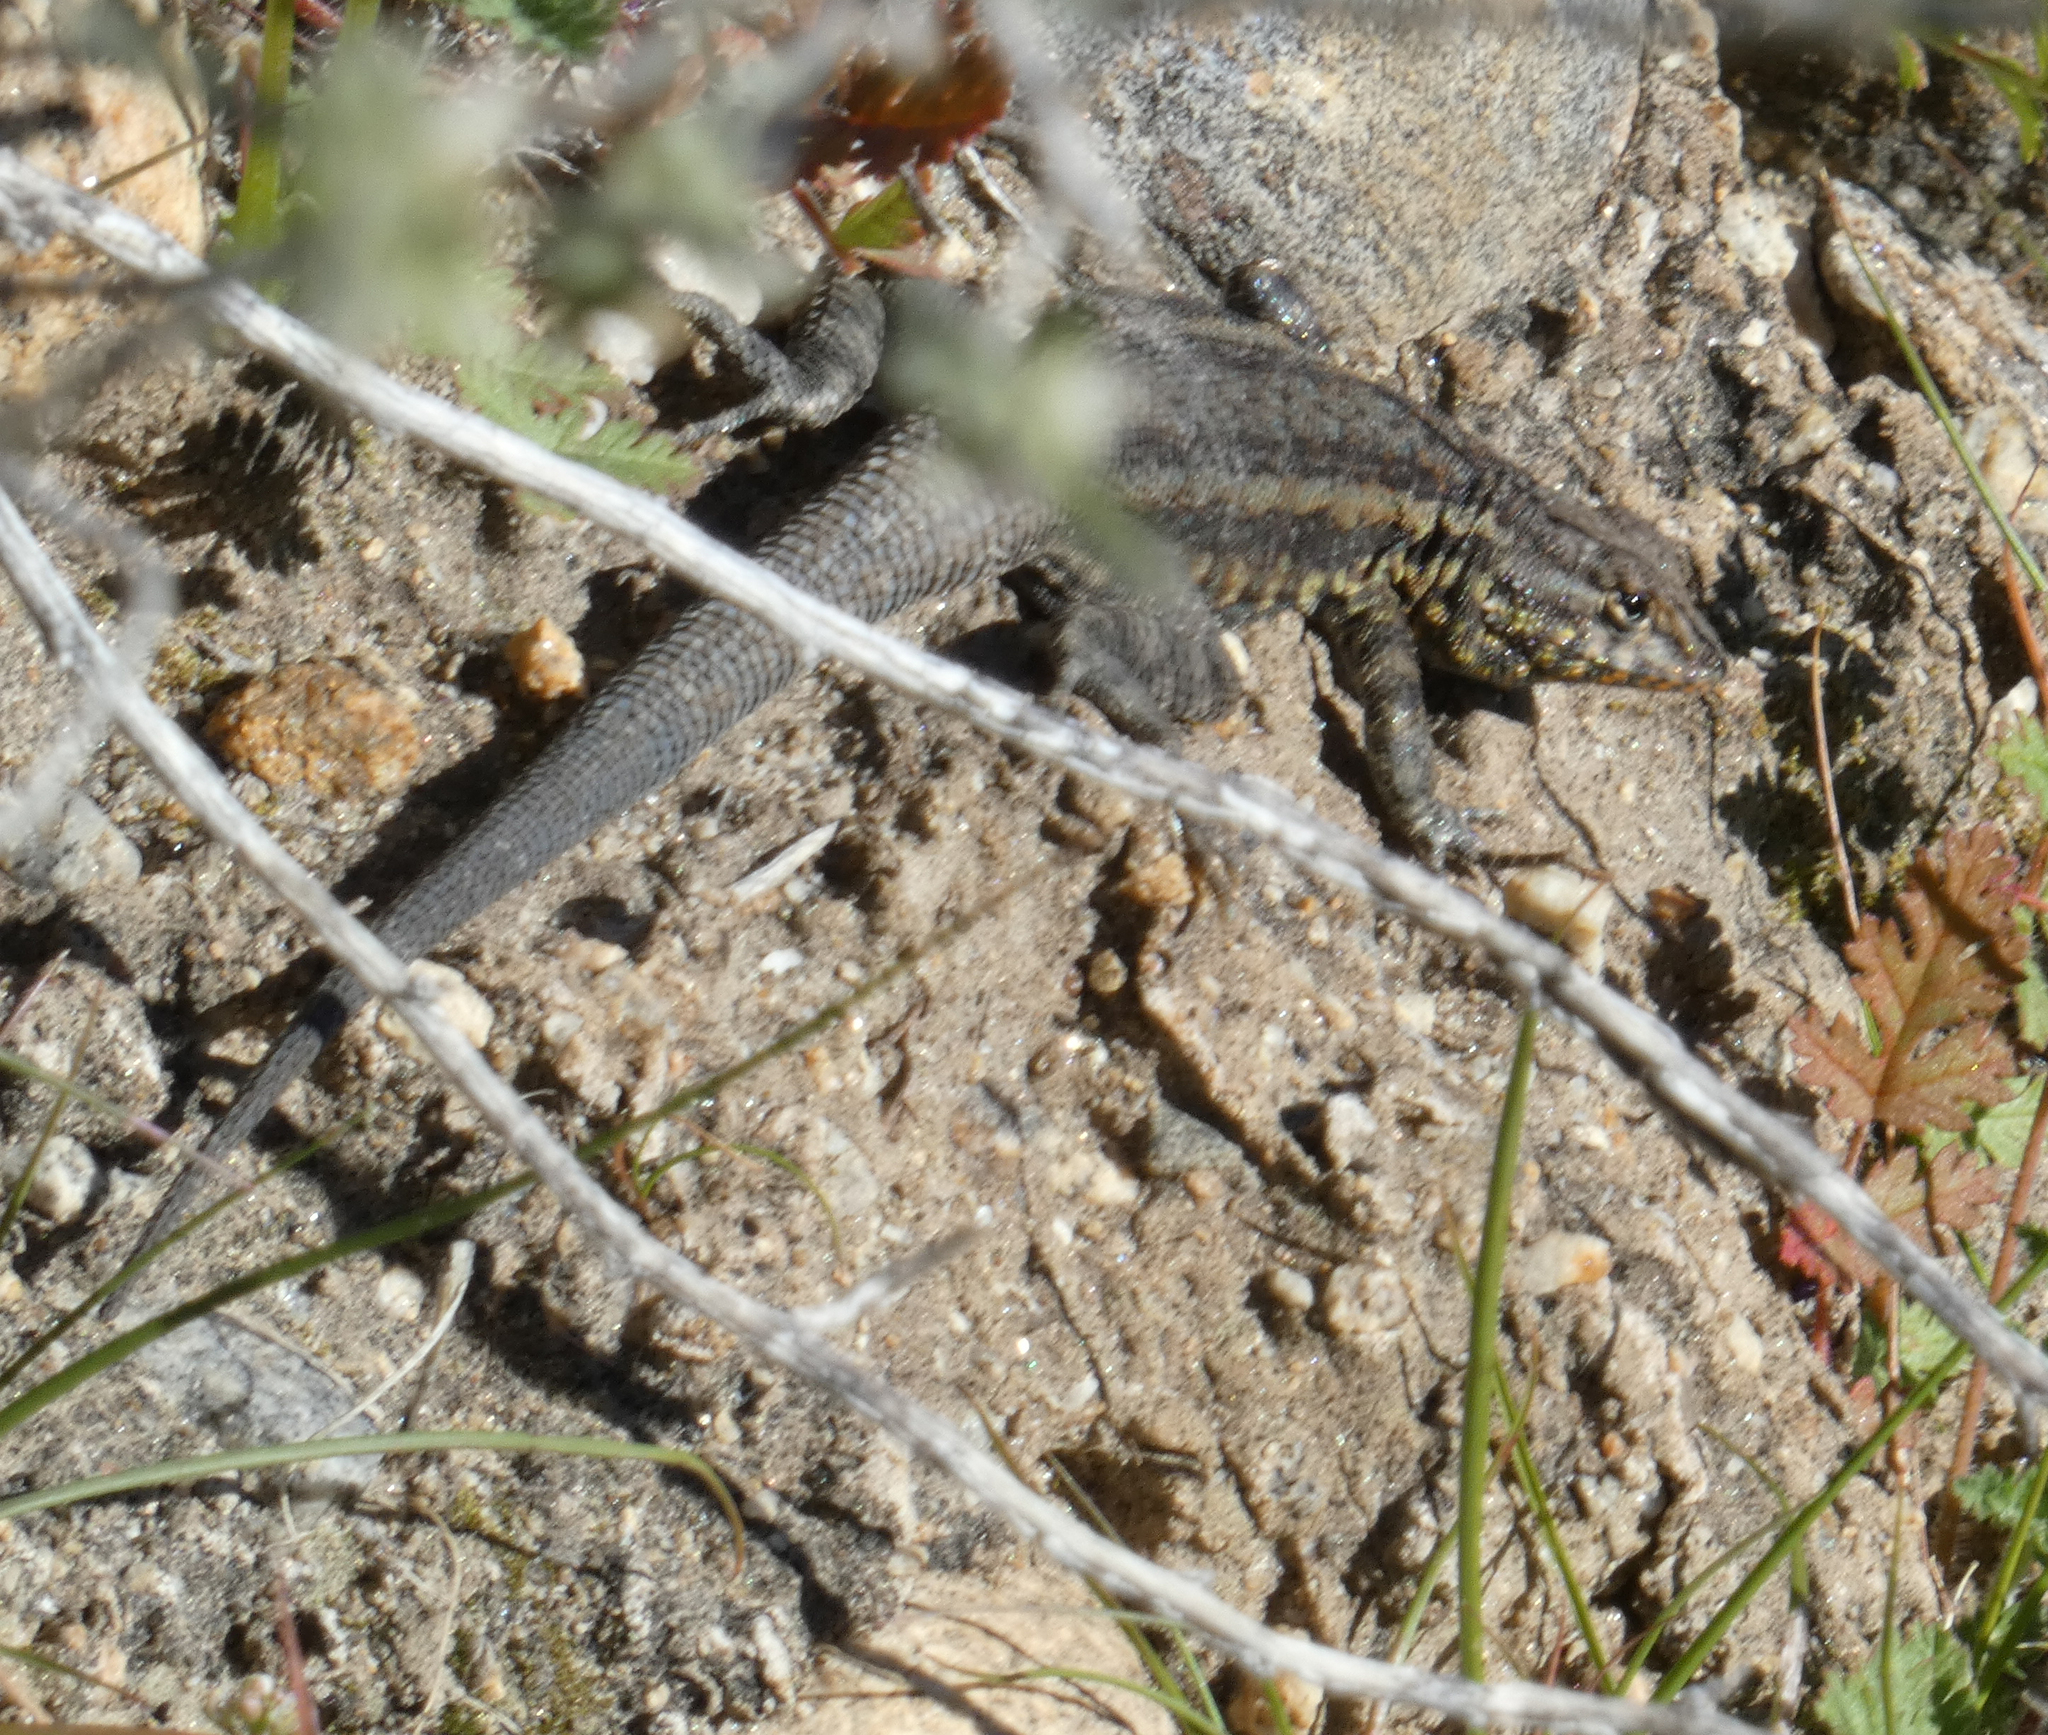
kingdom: Animalia
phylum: Chordata
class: Squamata
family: Phrynosomatidae
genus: Uta
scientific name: Uta stansburiana
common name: Side-blotched lizard
